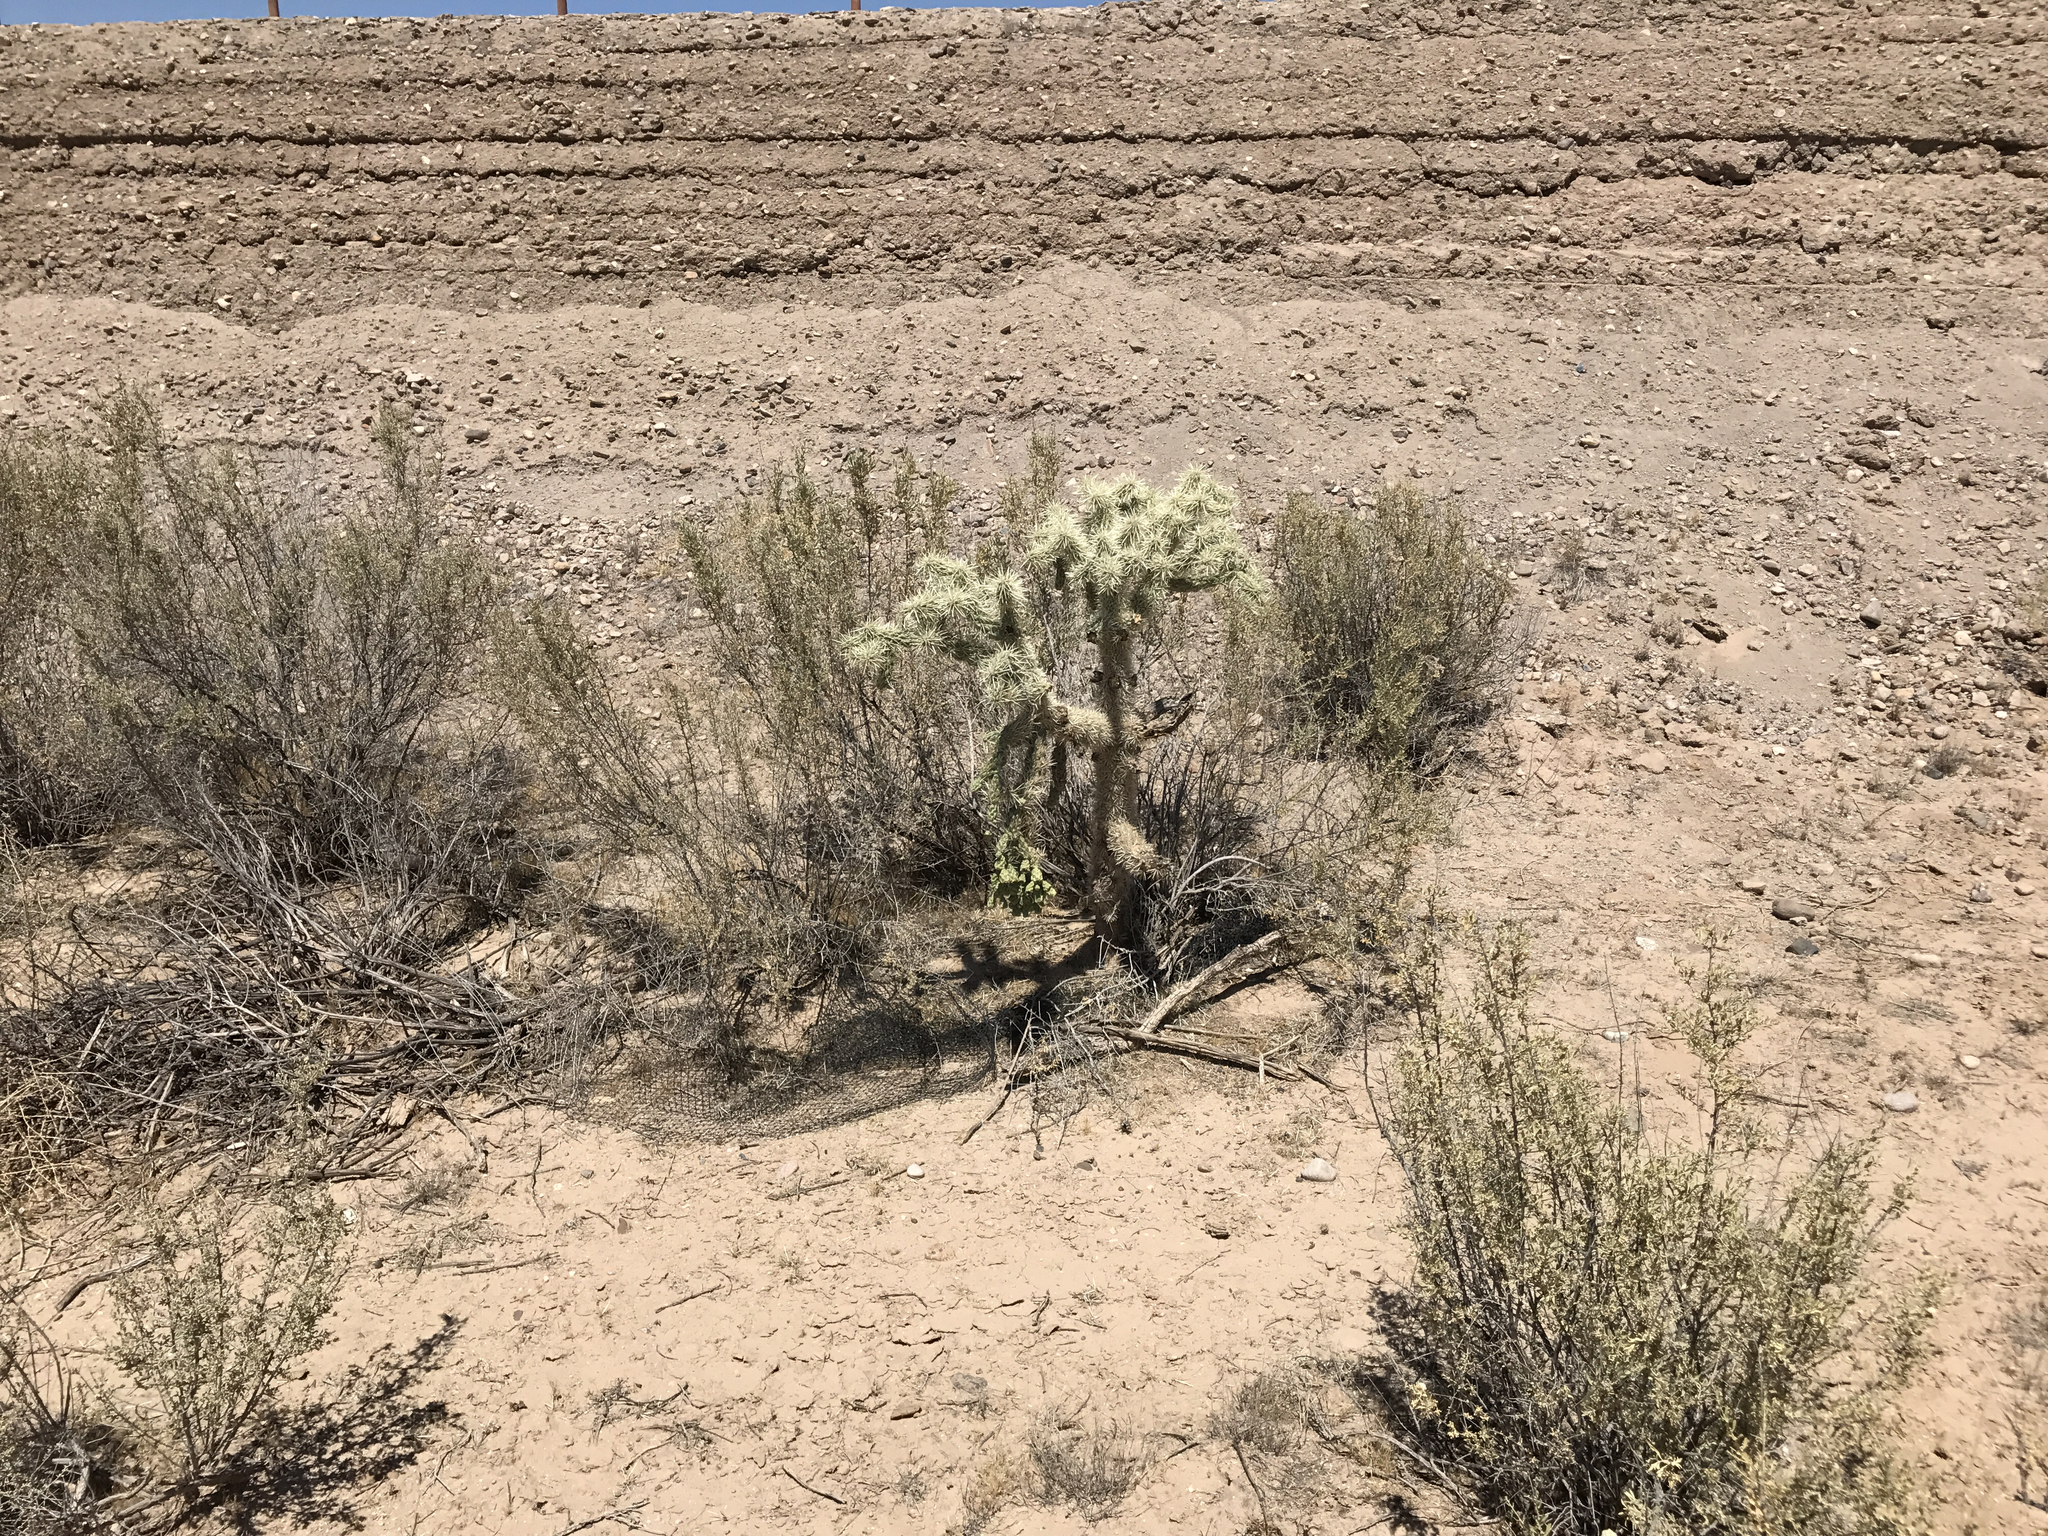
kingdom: Plantae
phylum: Tracheophyta
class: Magnoliopsida
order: Caryophyllales
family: Cactaceae
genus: Cylindropuntia
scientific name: Cylindropuntia fulgida
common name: Jumping cholla
